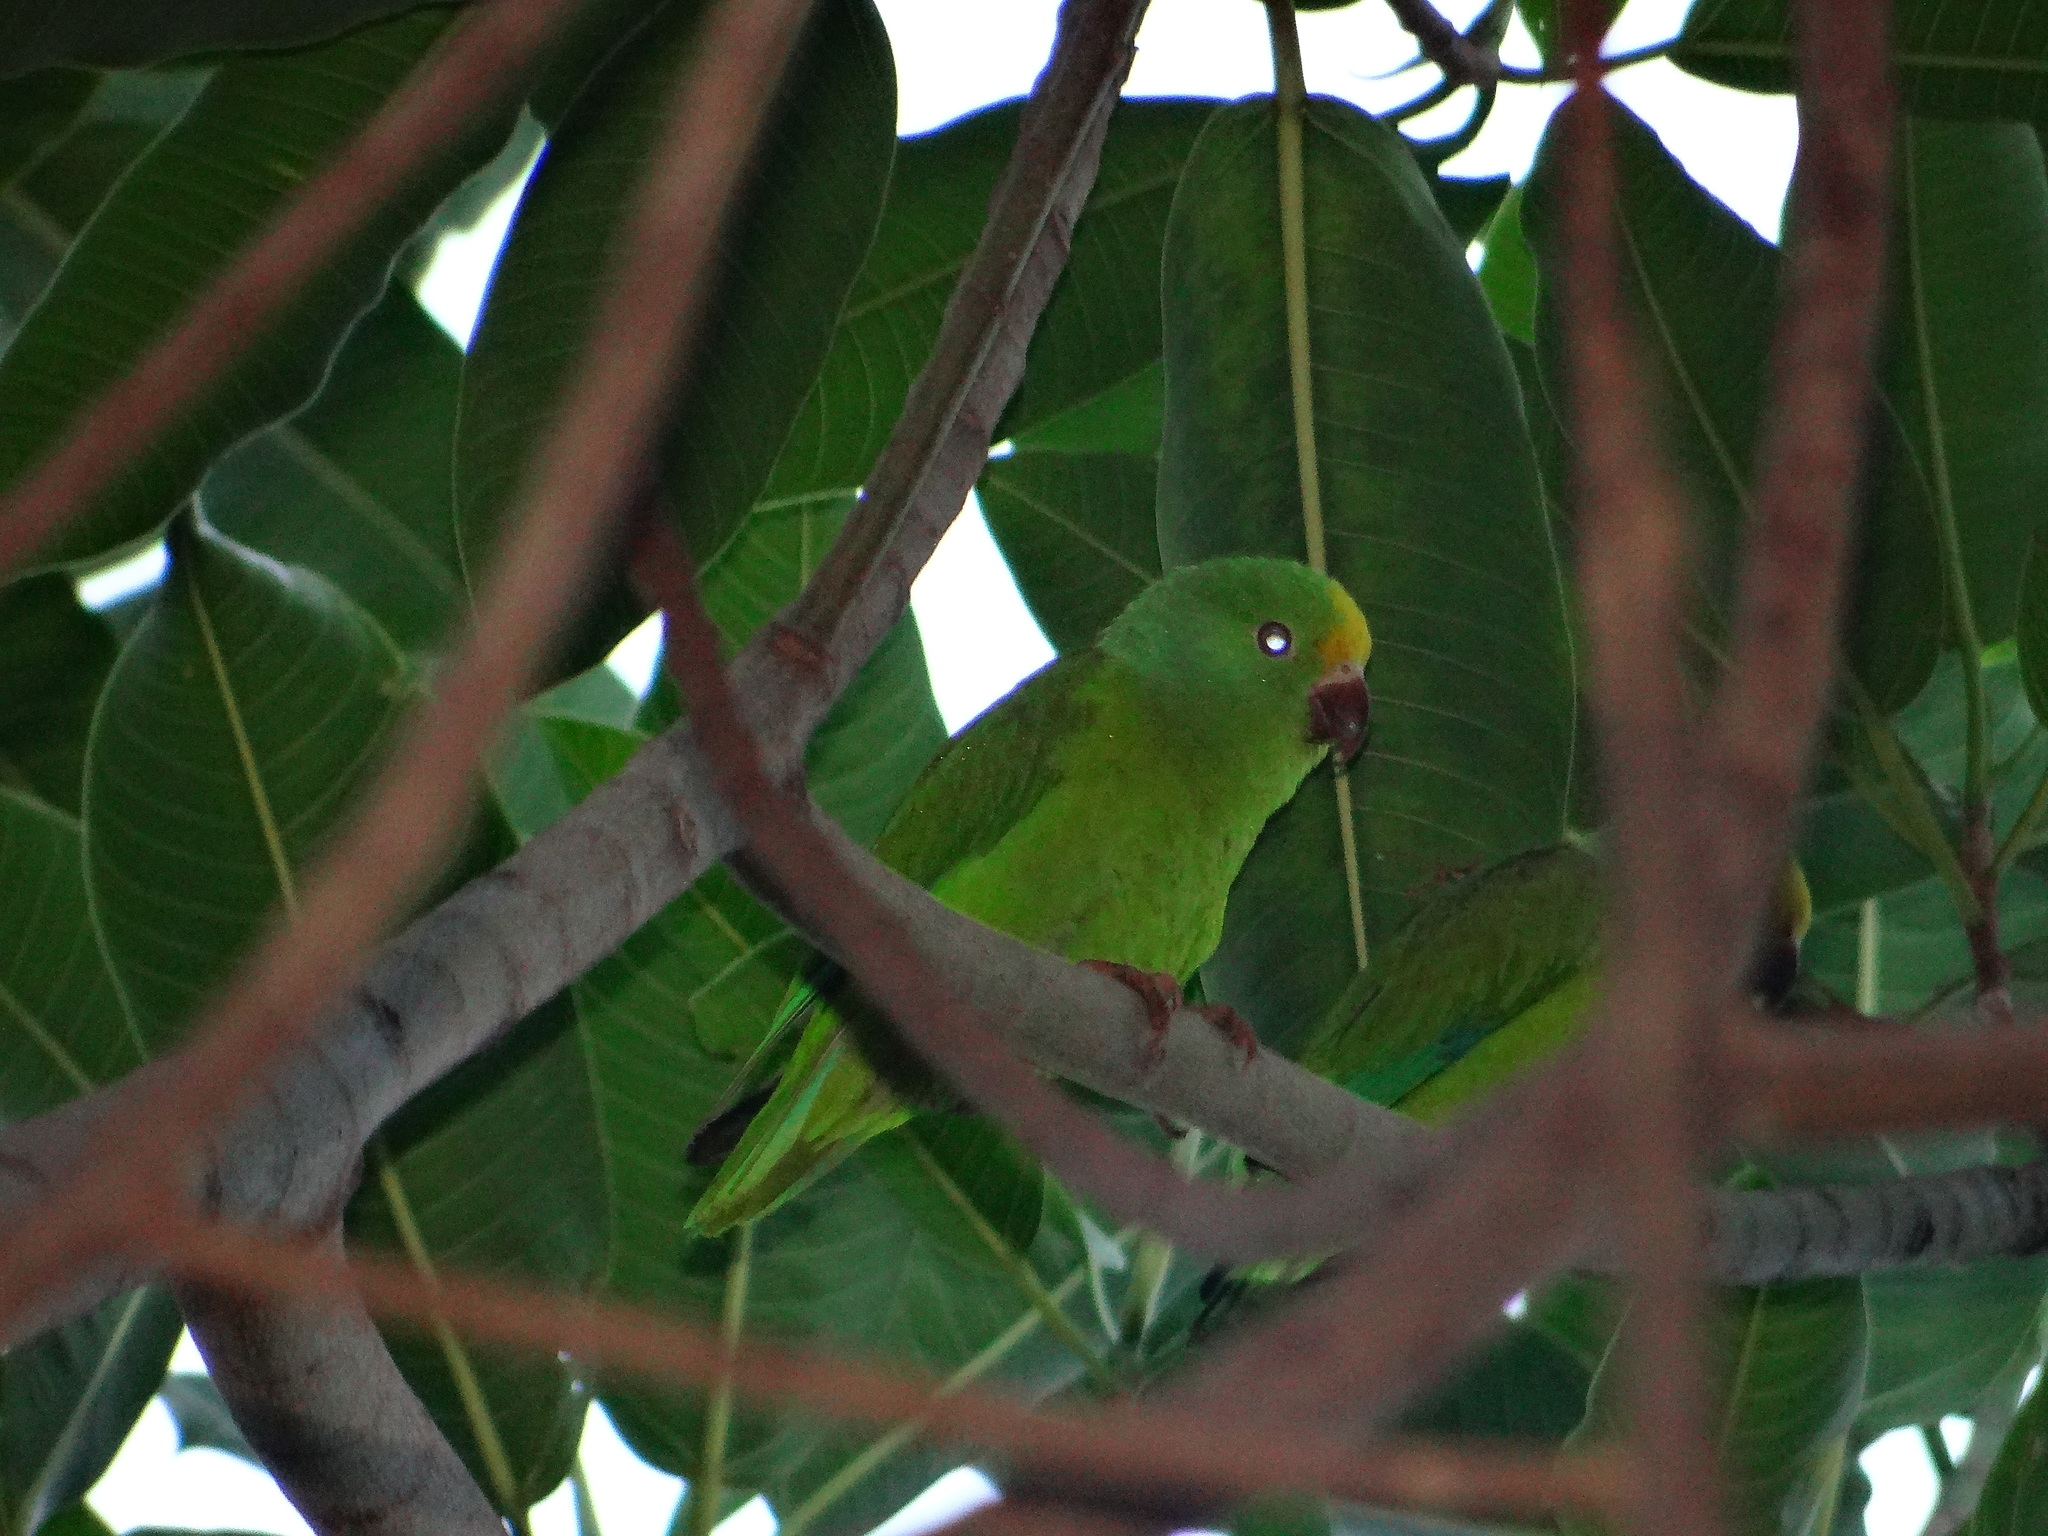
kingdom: Animalia
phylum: Chordata
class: Aves
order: Psittaciformes
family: Psittacidae
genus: Brotogeris
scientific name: Brotogeris sanctithomae
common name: Tui parakeet
